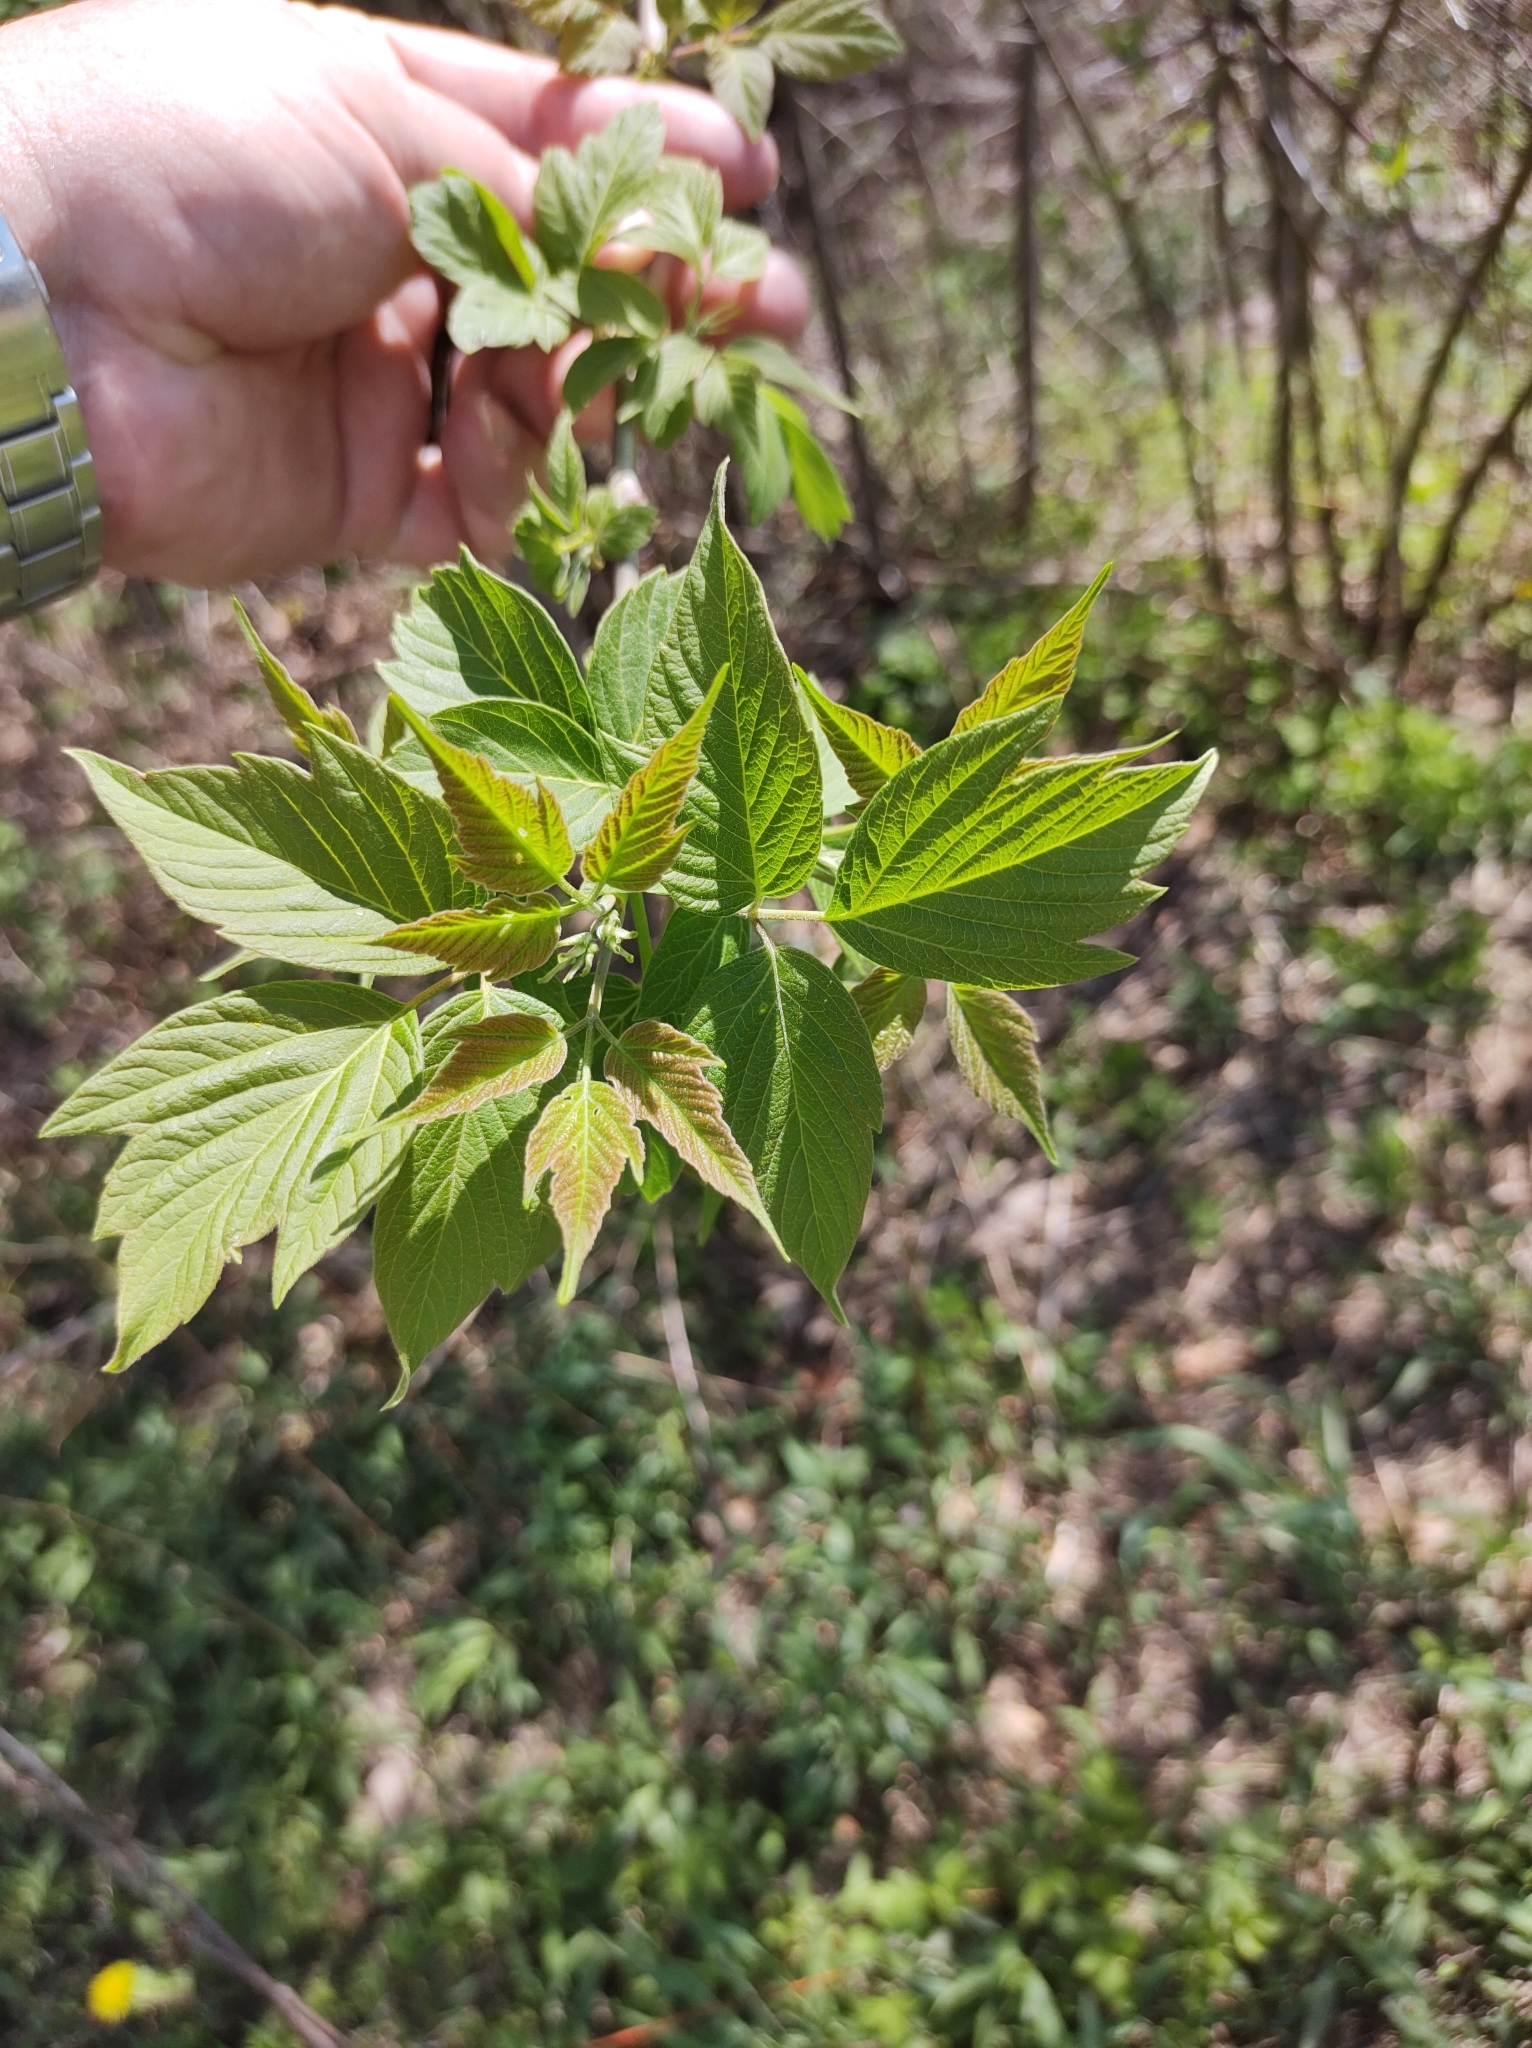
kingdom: Plantae
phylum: Tracheophyta
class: Magnoliopsida
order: Sapindales
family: Sapindaceae
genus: Acer
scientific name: Acer negundo
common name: Ashleaf maple
